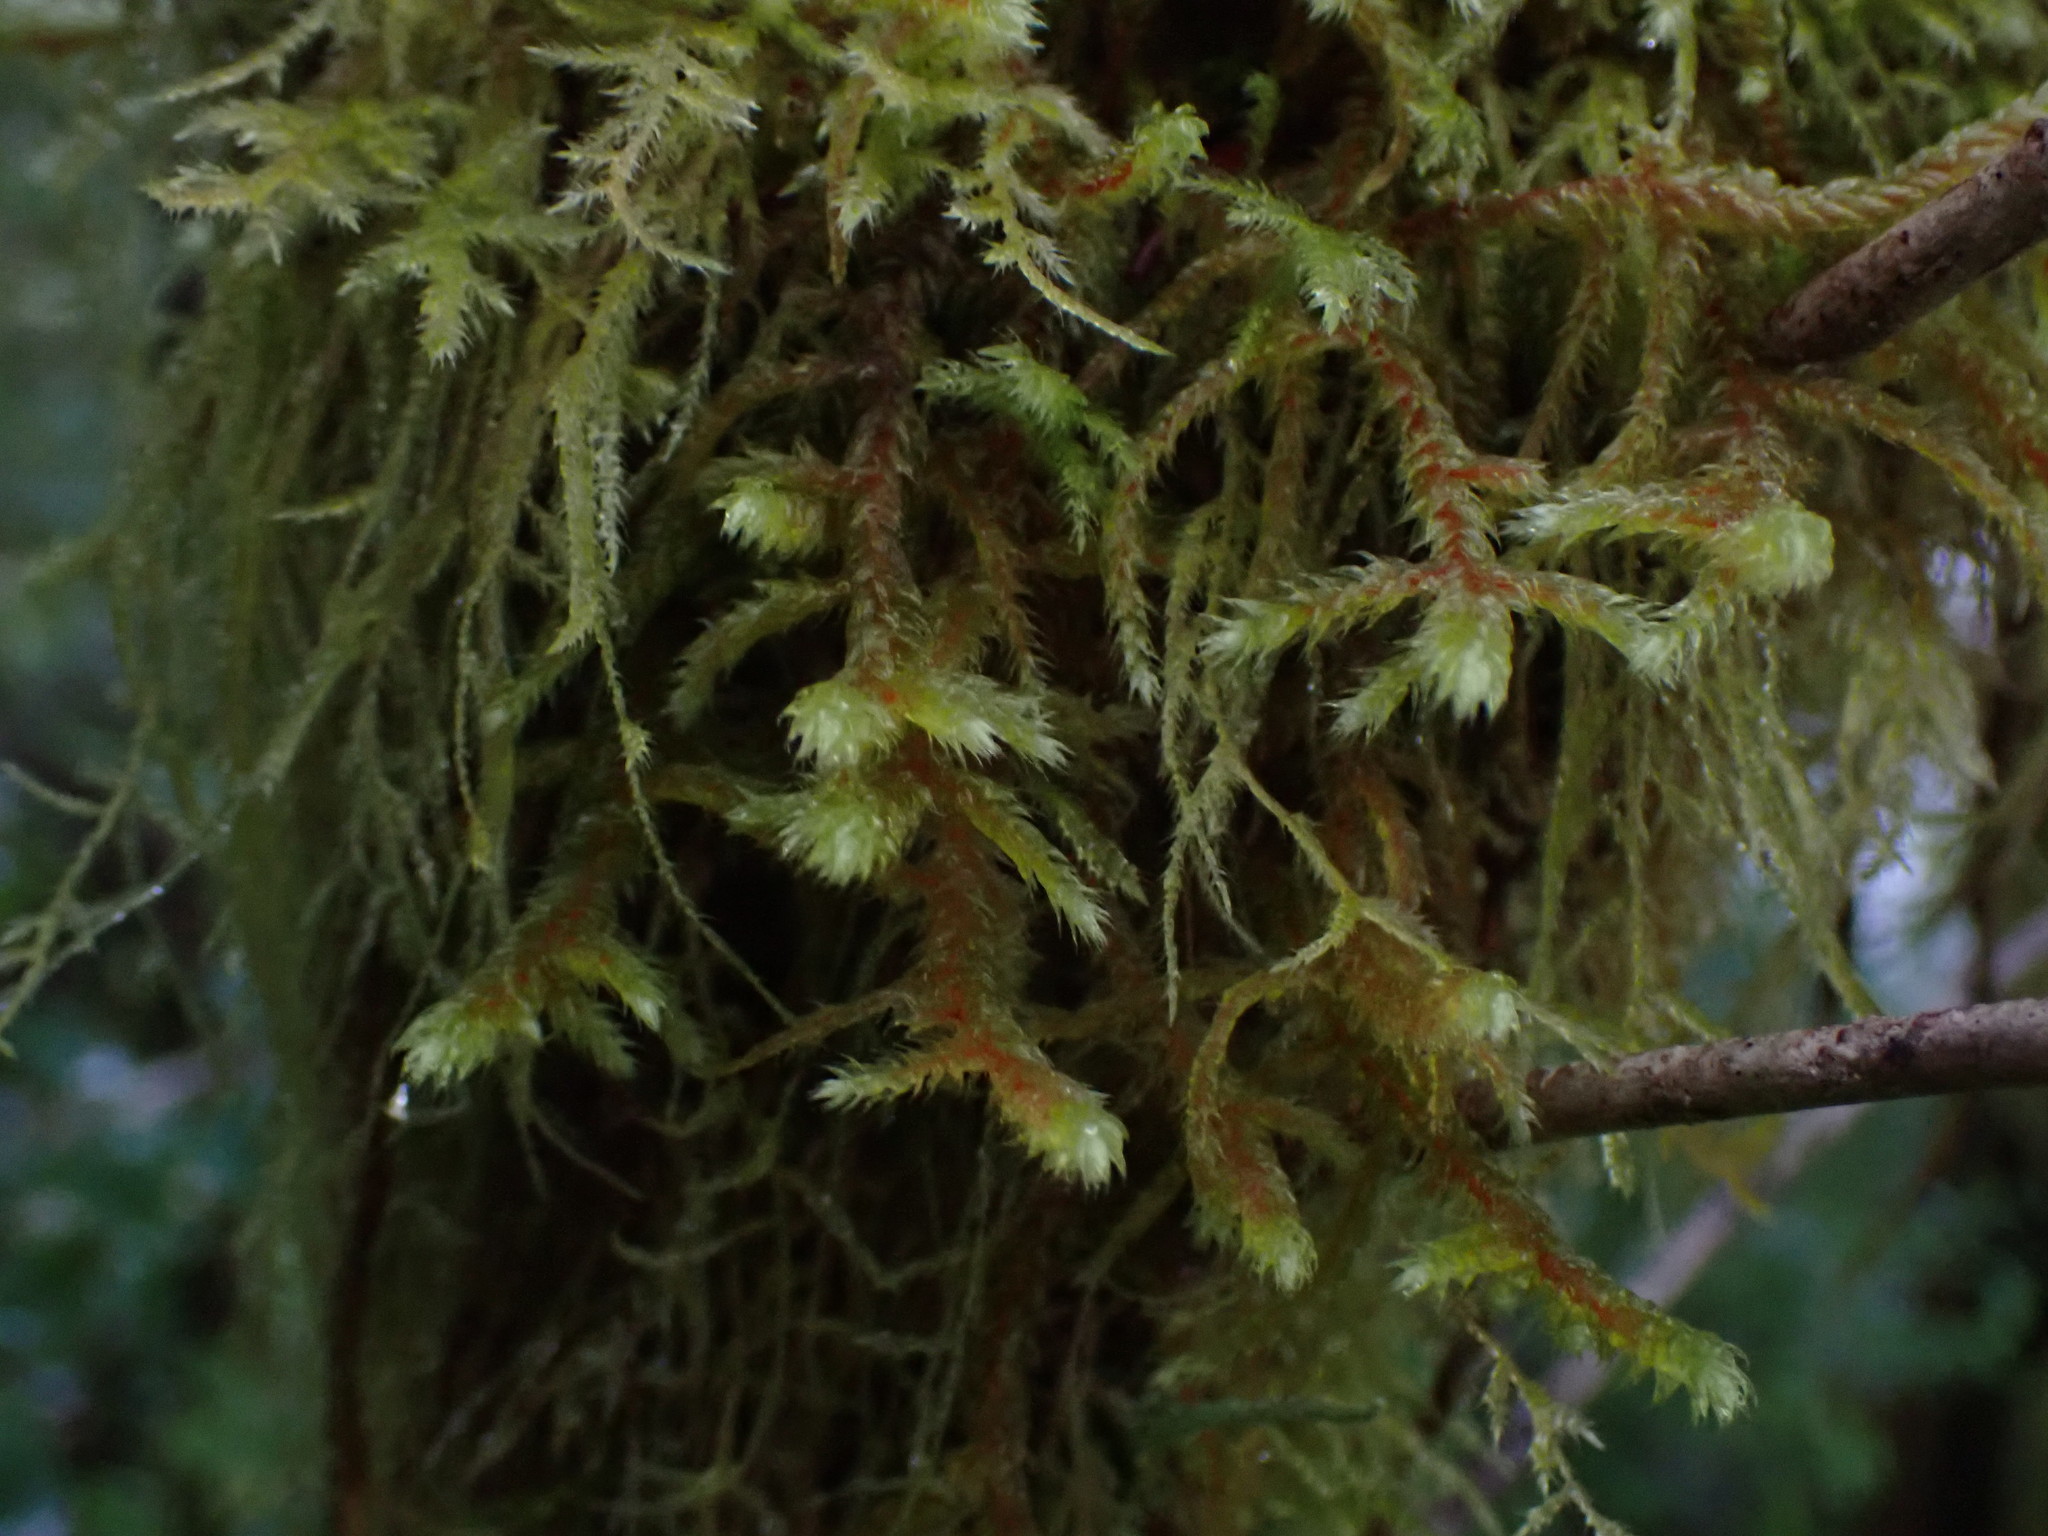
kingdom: Plantae
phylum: Bryophyta
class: Bryopsida
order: Hypnales
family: Antitrichiaceae
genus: Antitrichia
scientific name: Antitrichia curtipendula
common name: Pendulous wing-moss
